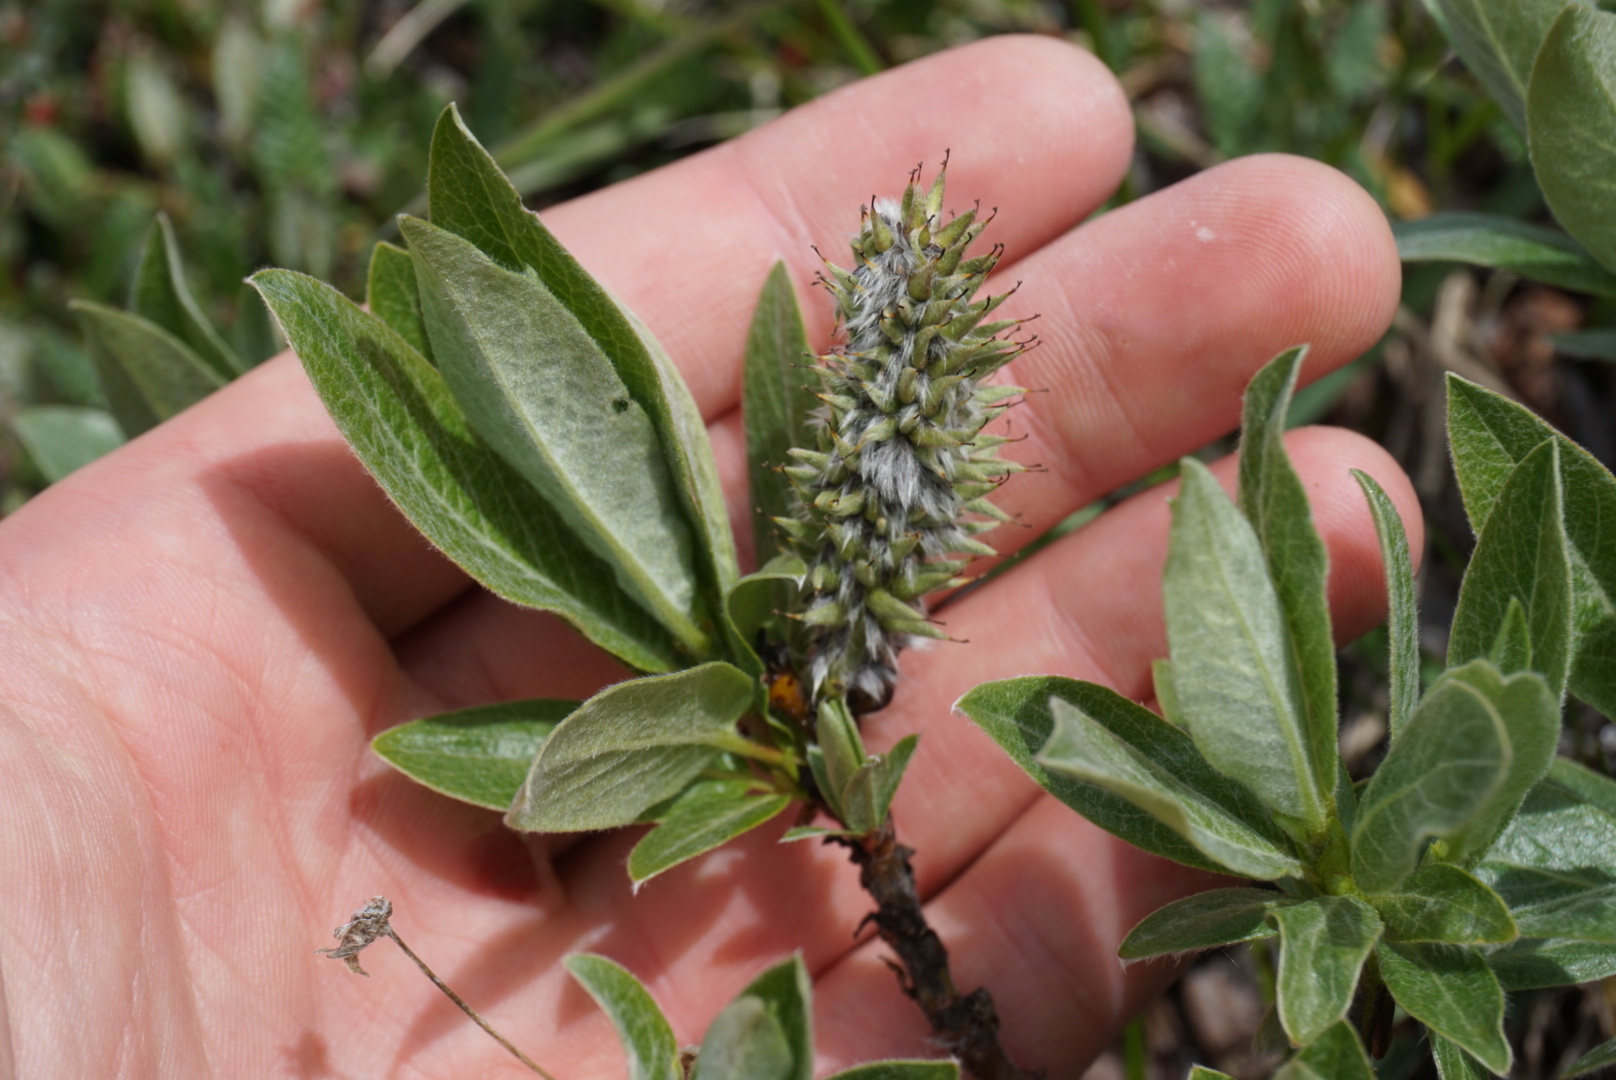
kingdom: Plantae
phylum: Tracheophyta
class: Magnoliopsida
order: Malpighiales
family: Salicaceae
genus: Salix
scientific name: Salix barrattiana
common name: Barratt's willow
